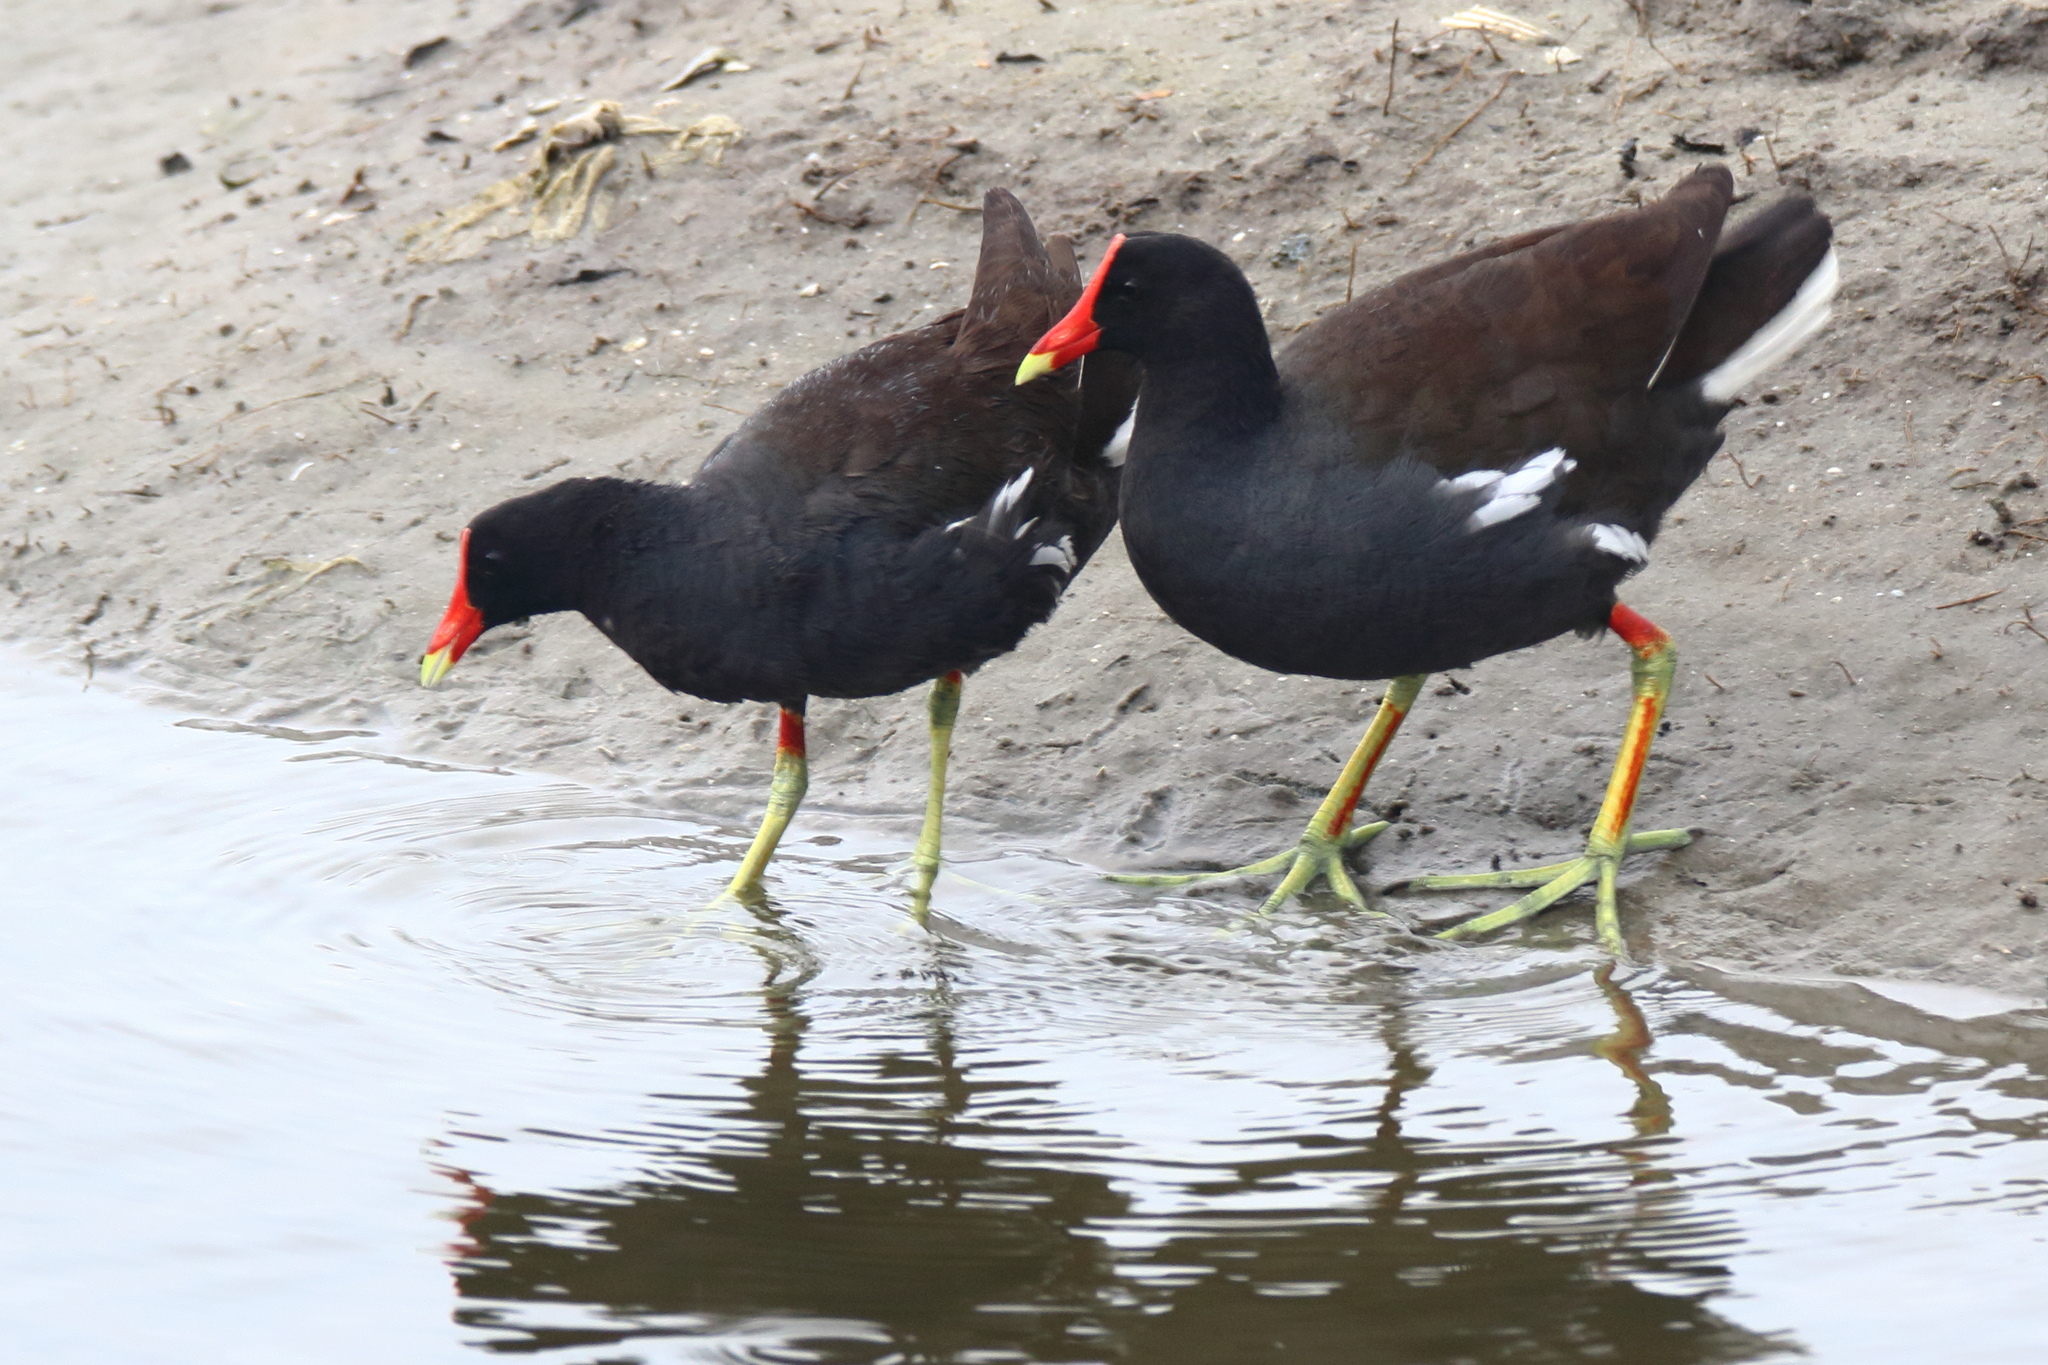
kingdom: Animalia
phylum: Chordata
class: Aves
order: Gruiformes
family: Rallidae
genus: Gallinula
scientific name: Gallinula chloropus
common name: Common moorhen
